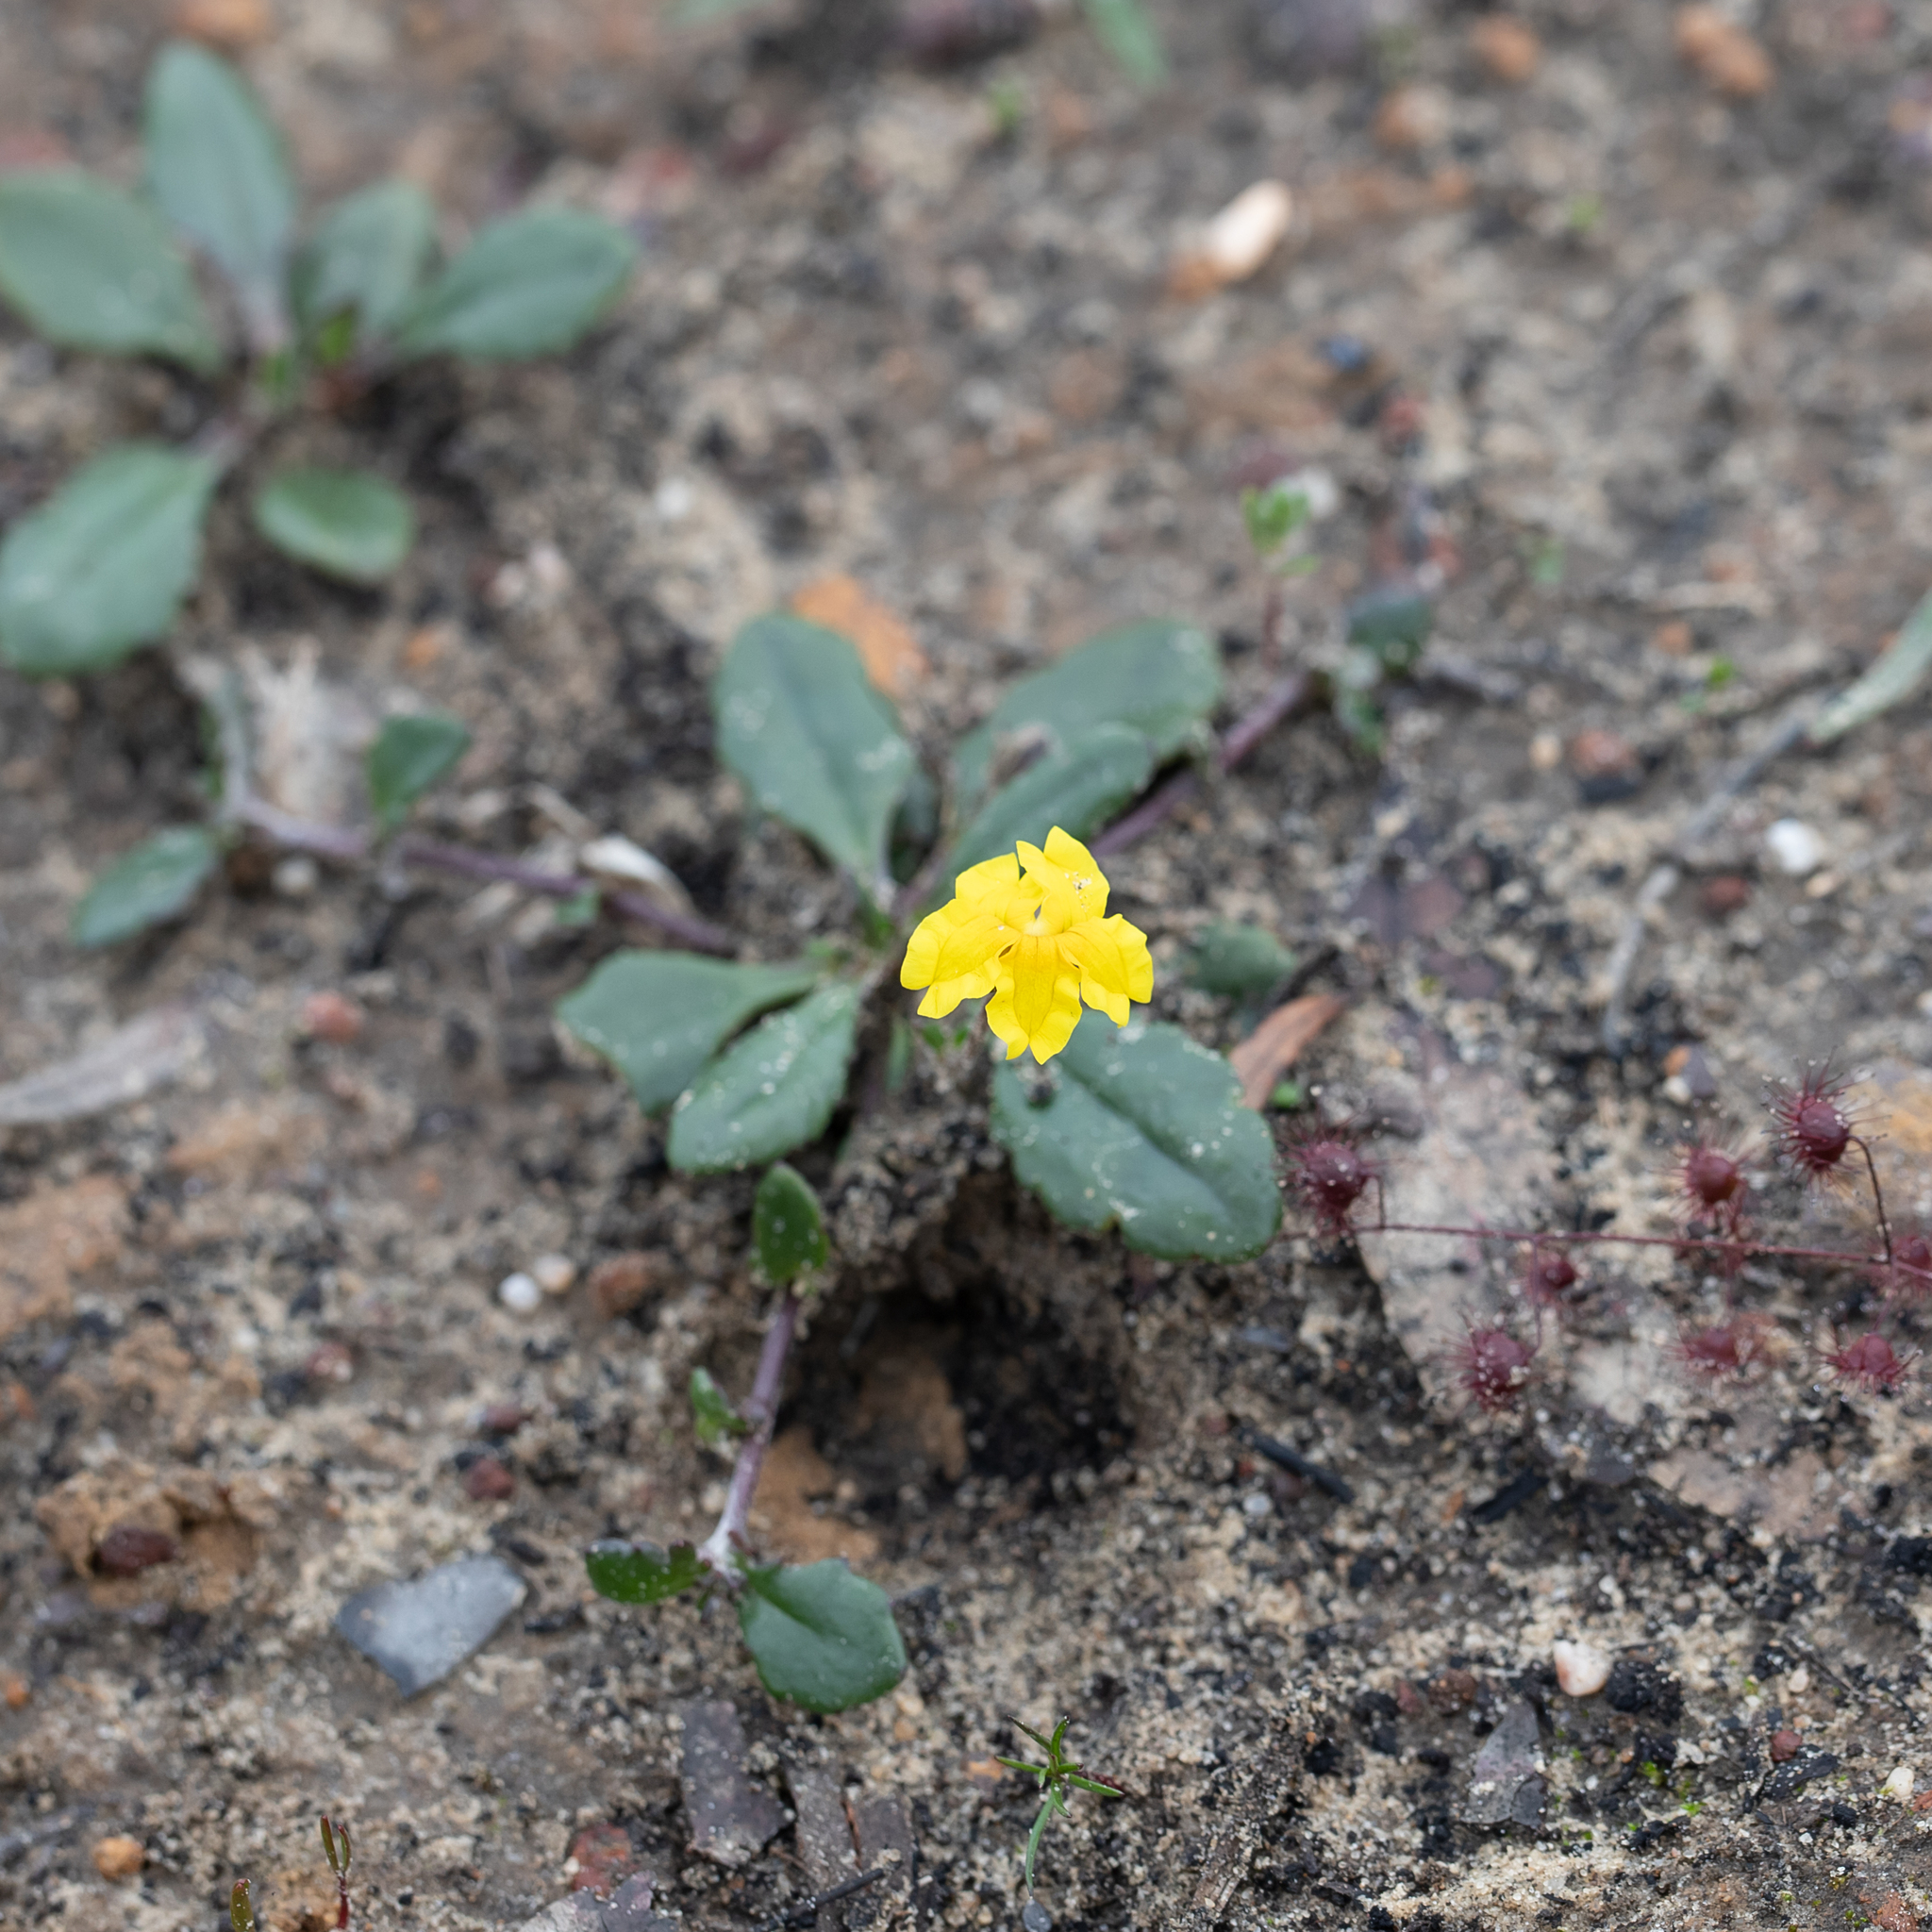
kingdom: Plantae
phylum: Tracheophyta
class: Magnoliopsida
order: Asterales
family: Goodeniaceae
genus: Goodenia
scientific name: Goodenia blackiana
